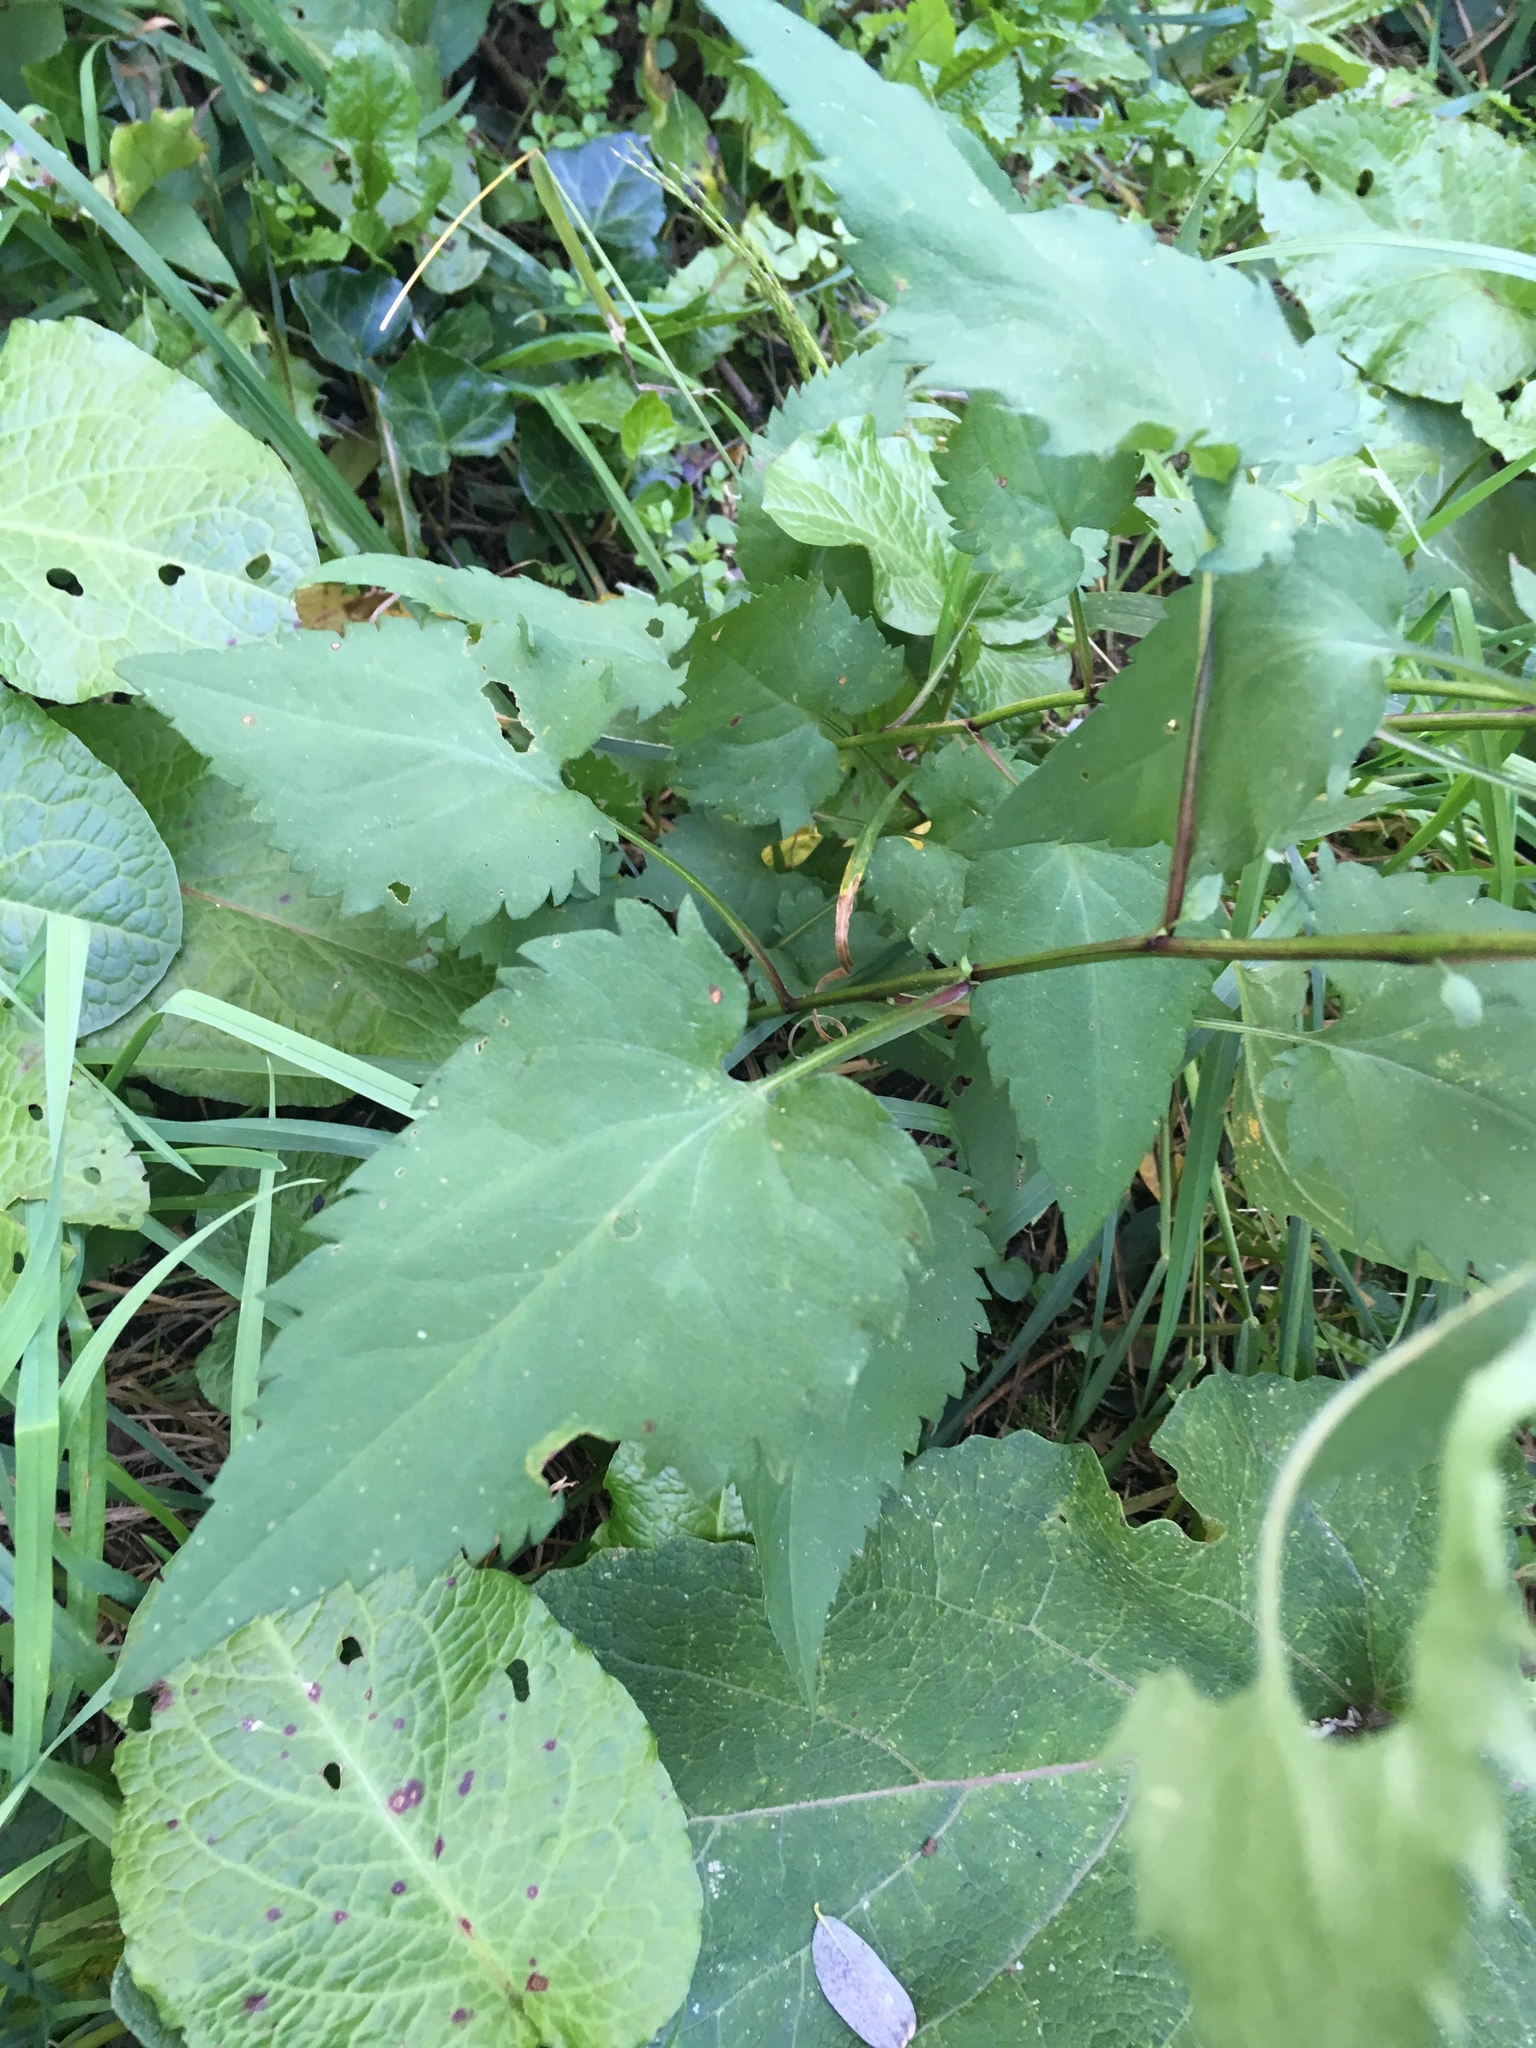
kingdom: Plantae
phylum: Tracheophyta
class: Magnoliopsida
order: Asterales
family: Asteraceae
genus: Symphyotrichum
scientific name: Symphyotrichum cordifolium
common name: Beeweed
